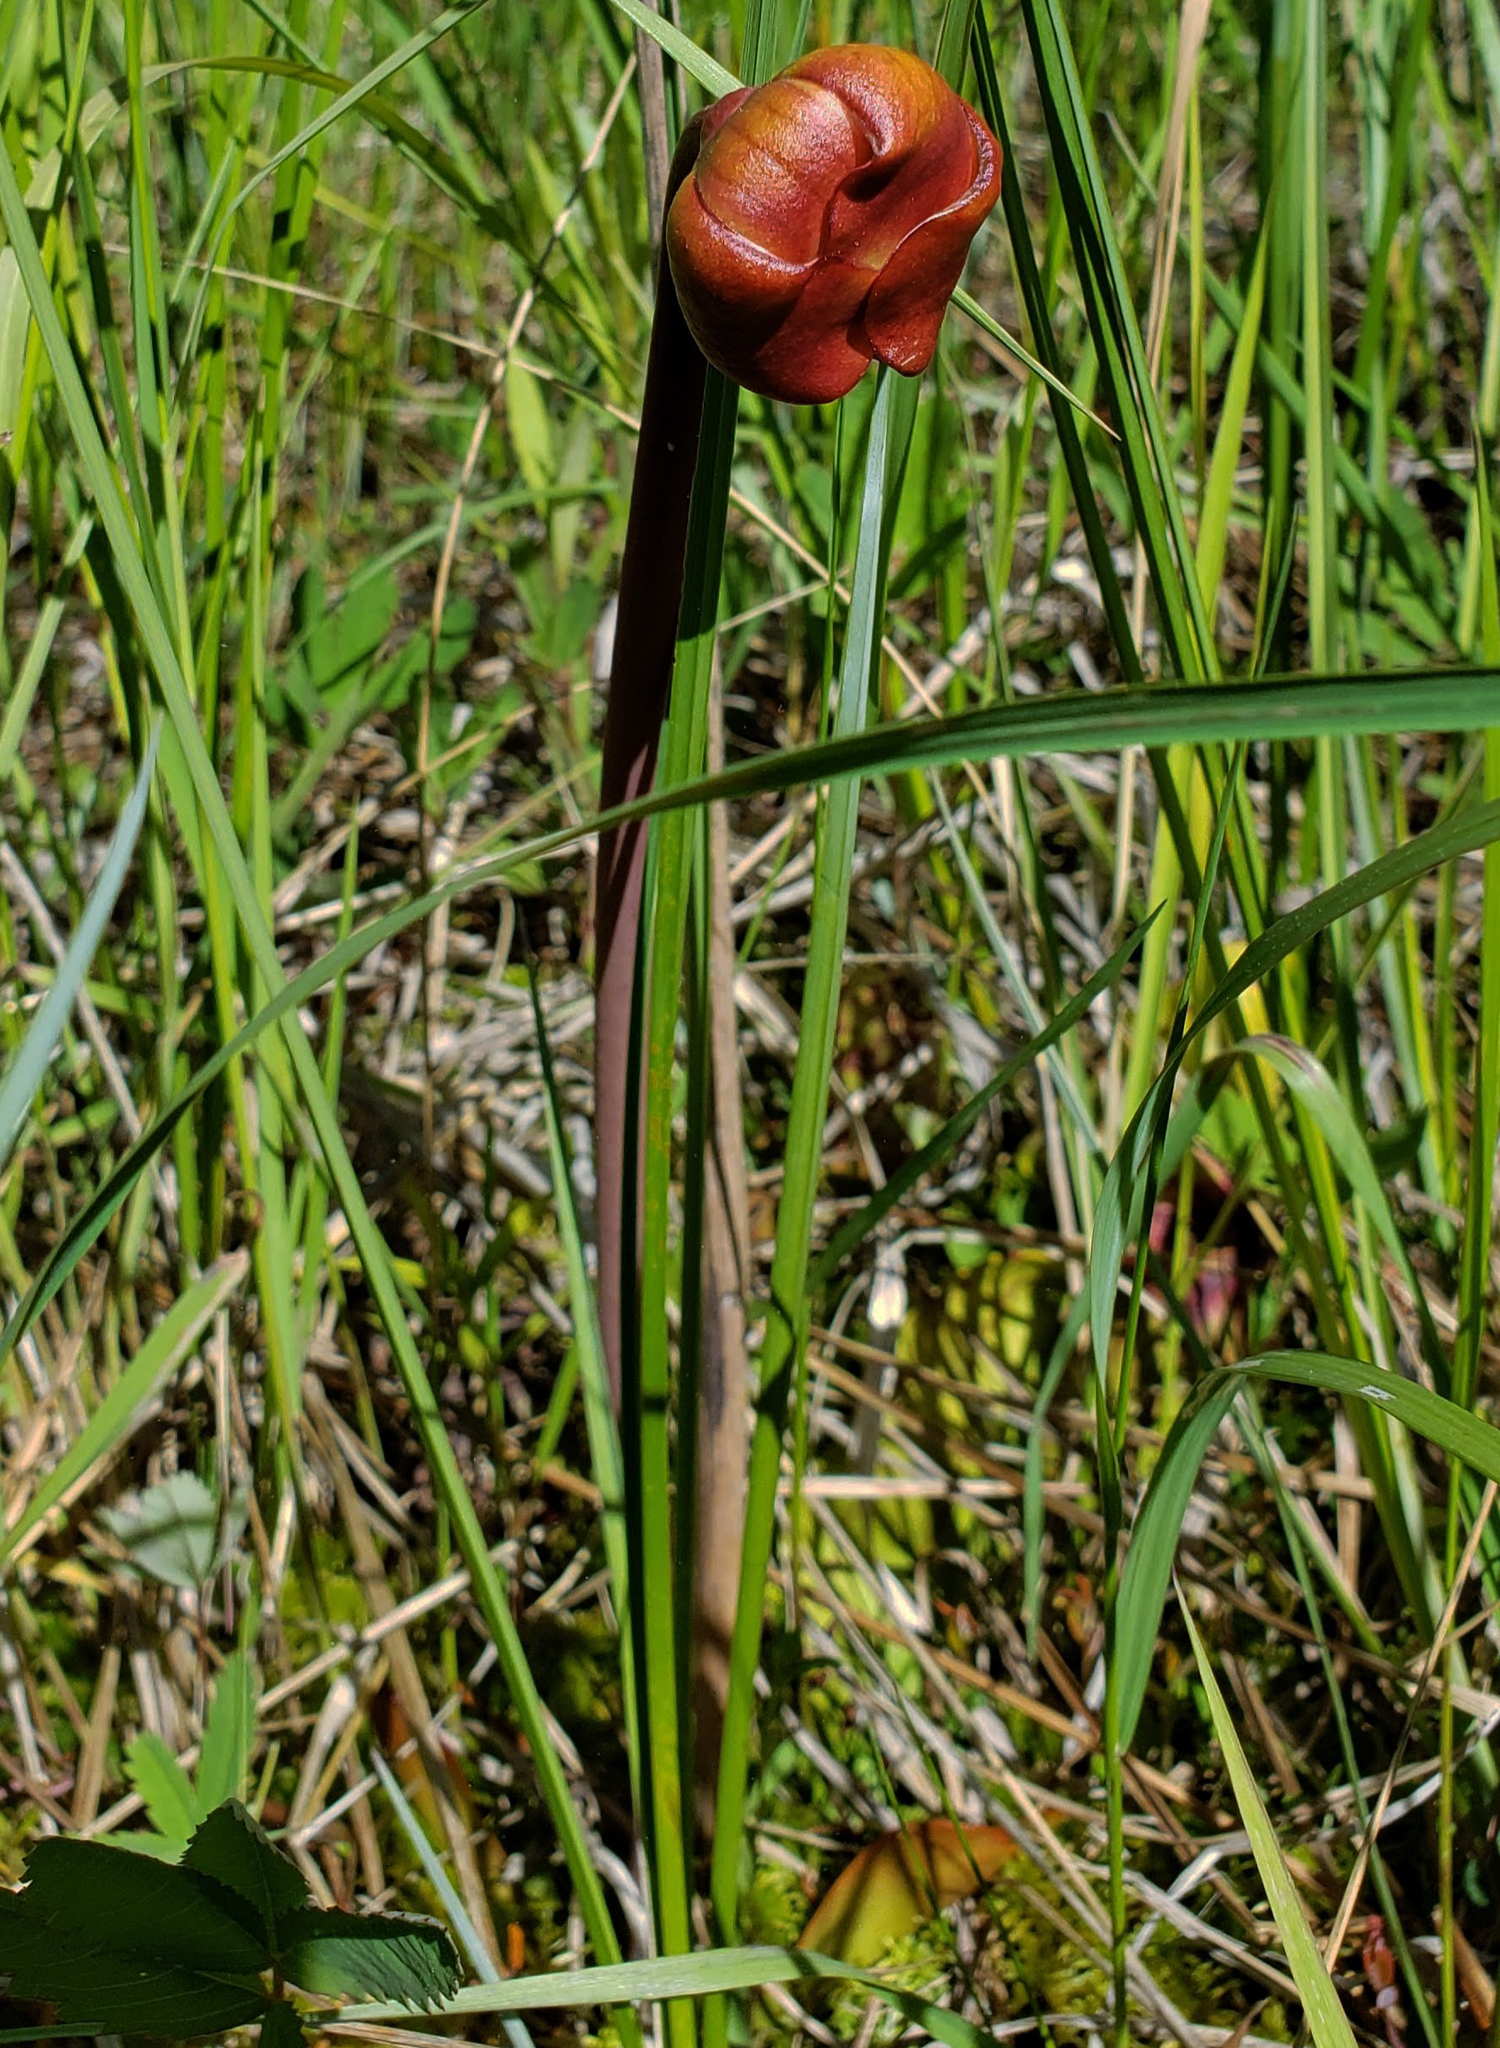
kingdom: Plantae
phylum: Tracheophyta
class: Magnoliopsida
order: Ericales
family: Sarraceniaceae
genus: Sarracenia
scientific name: Sarracenia purpurea
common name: Pitcherplant
